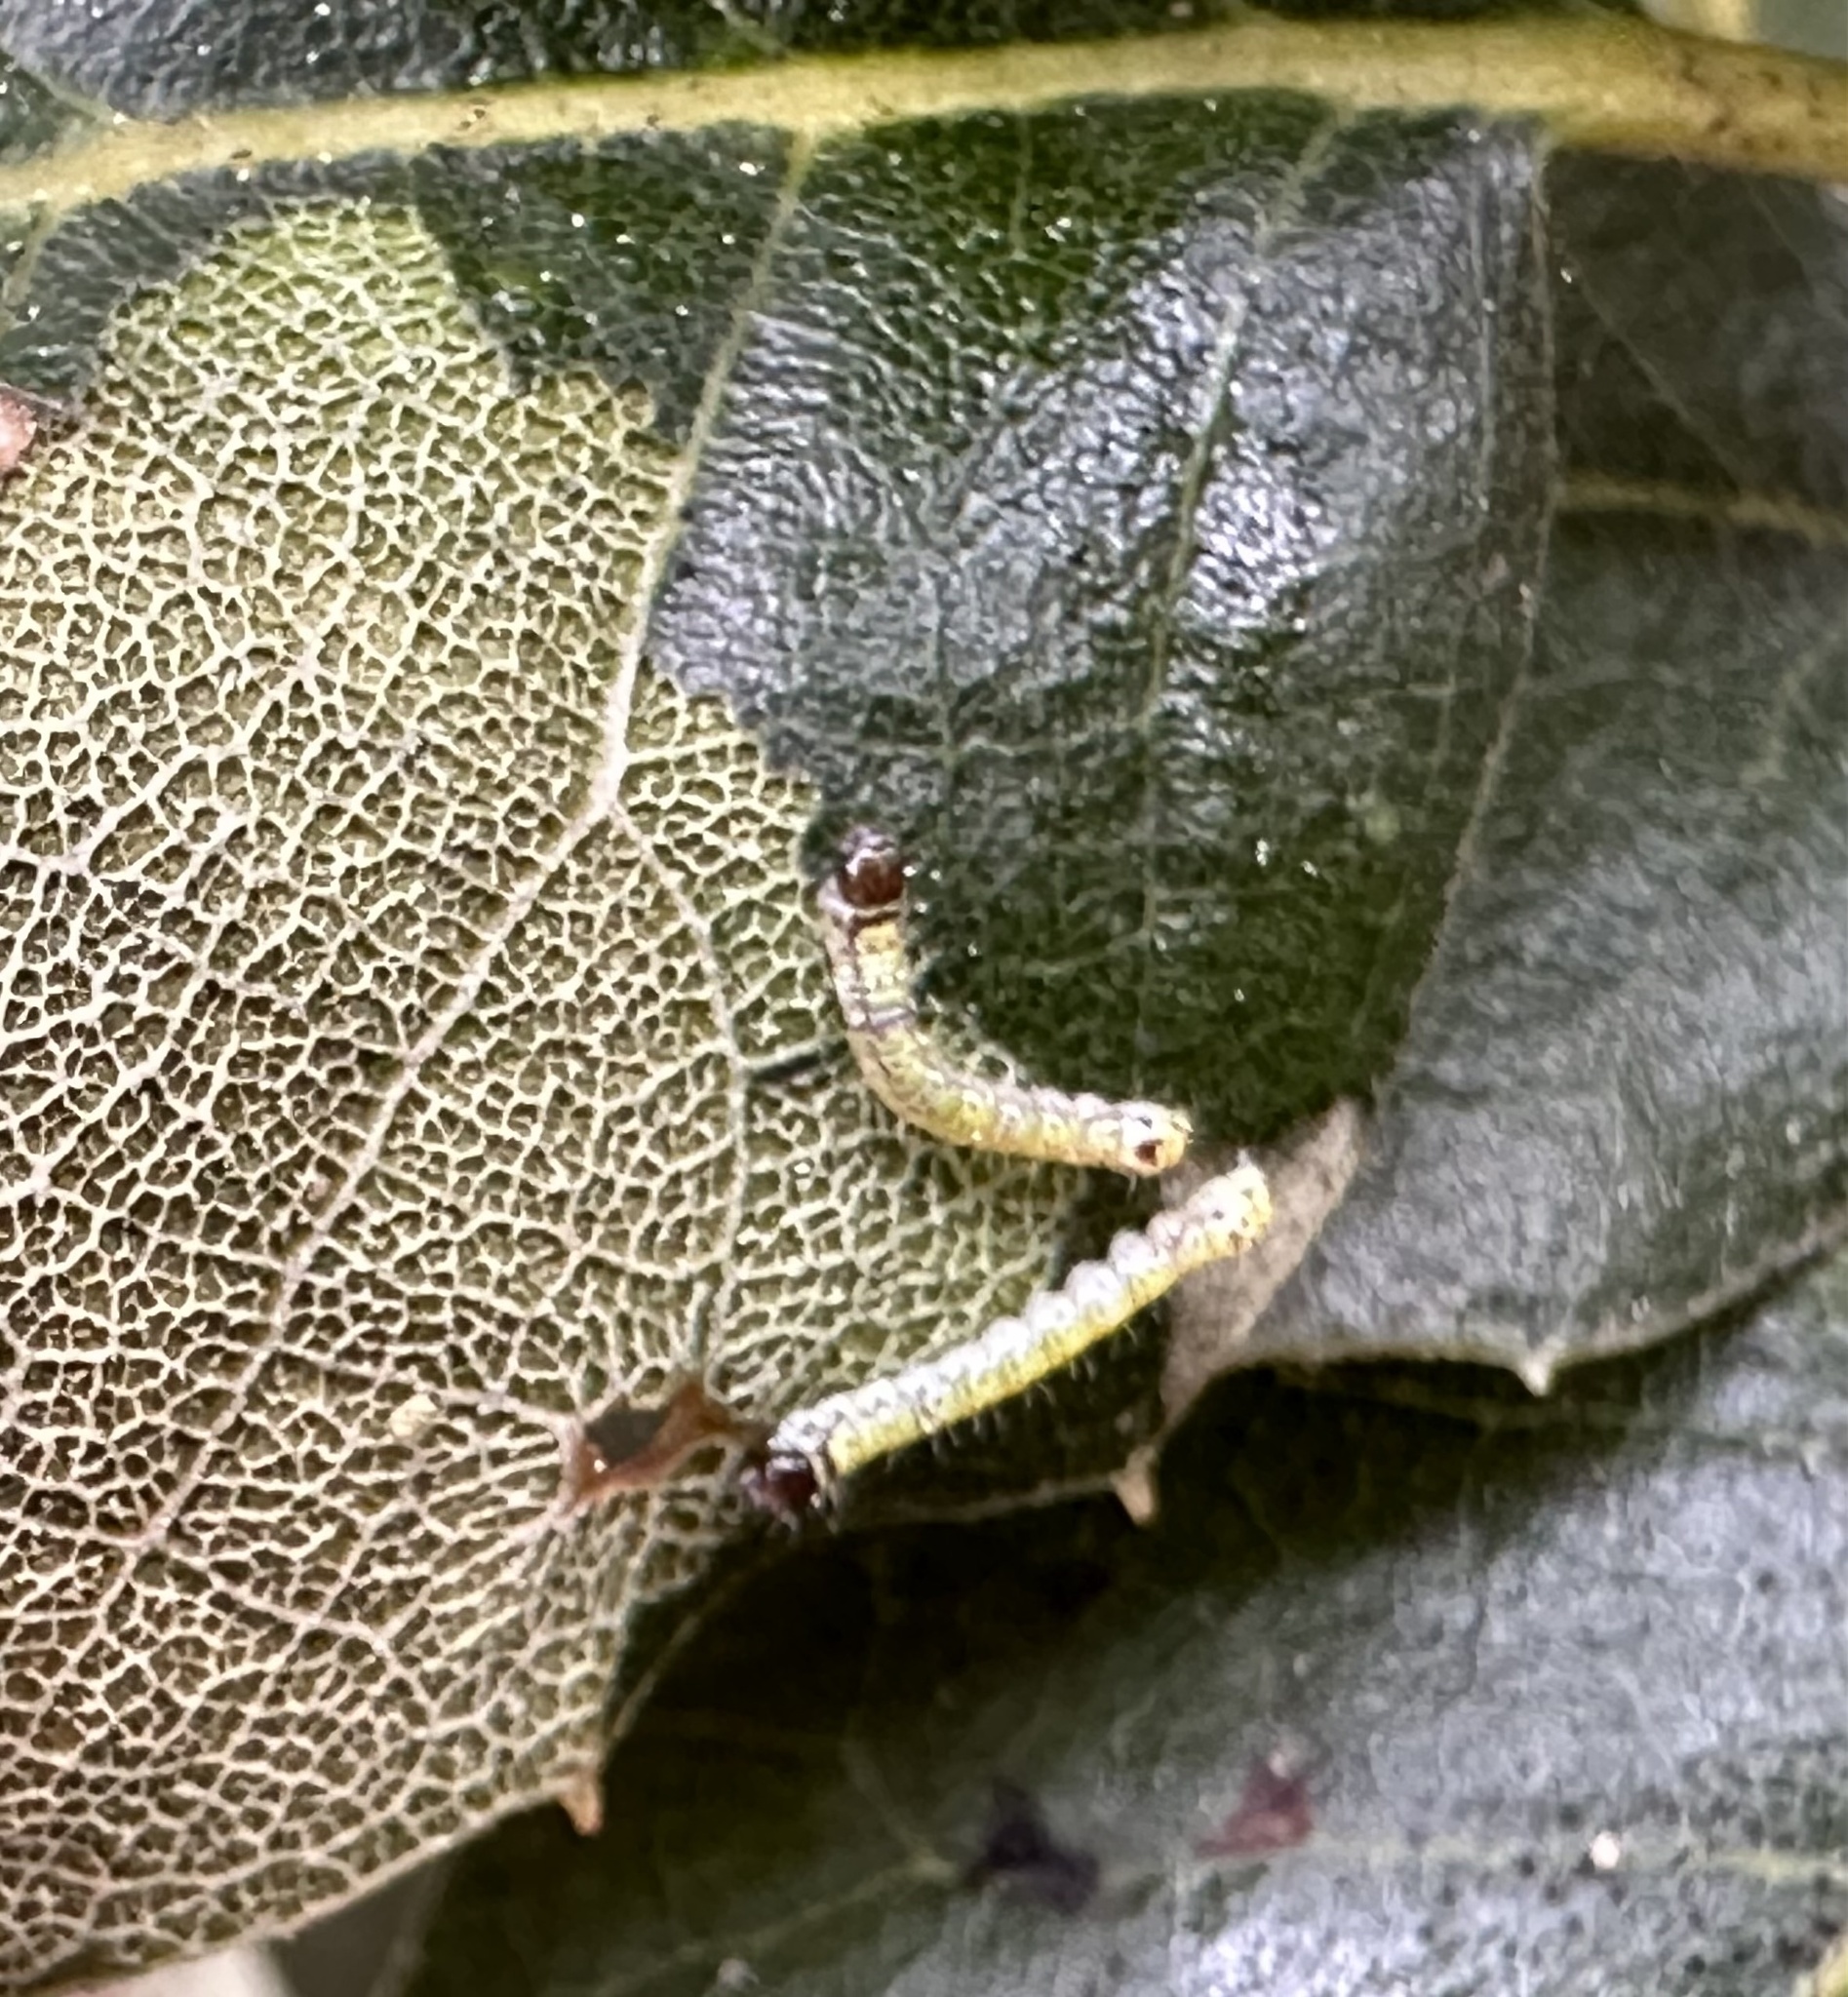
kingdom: Animalia
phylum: Arthropoda
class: Insecta
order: Lepidoptera
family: Notodontidae
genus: Phryganidia
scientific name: Phryganidia californica
